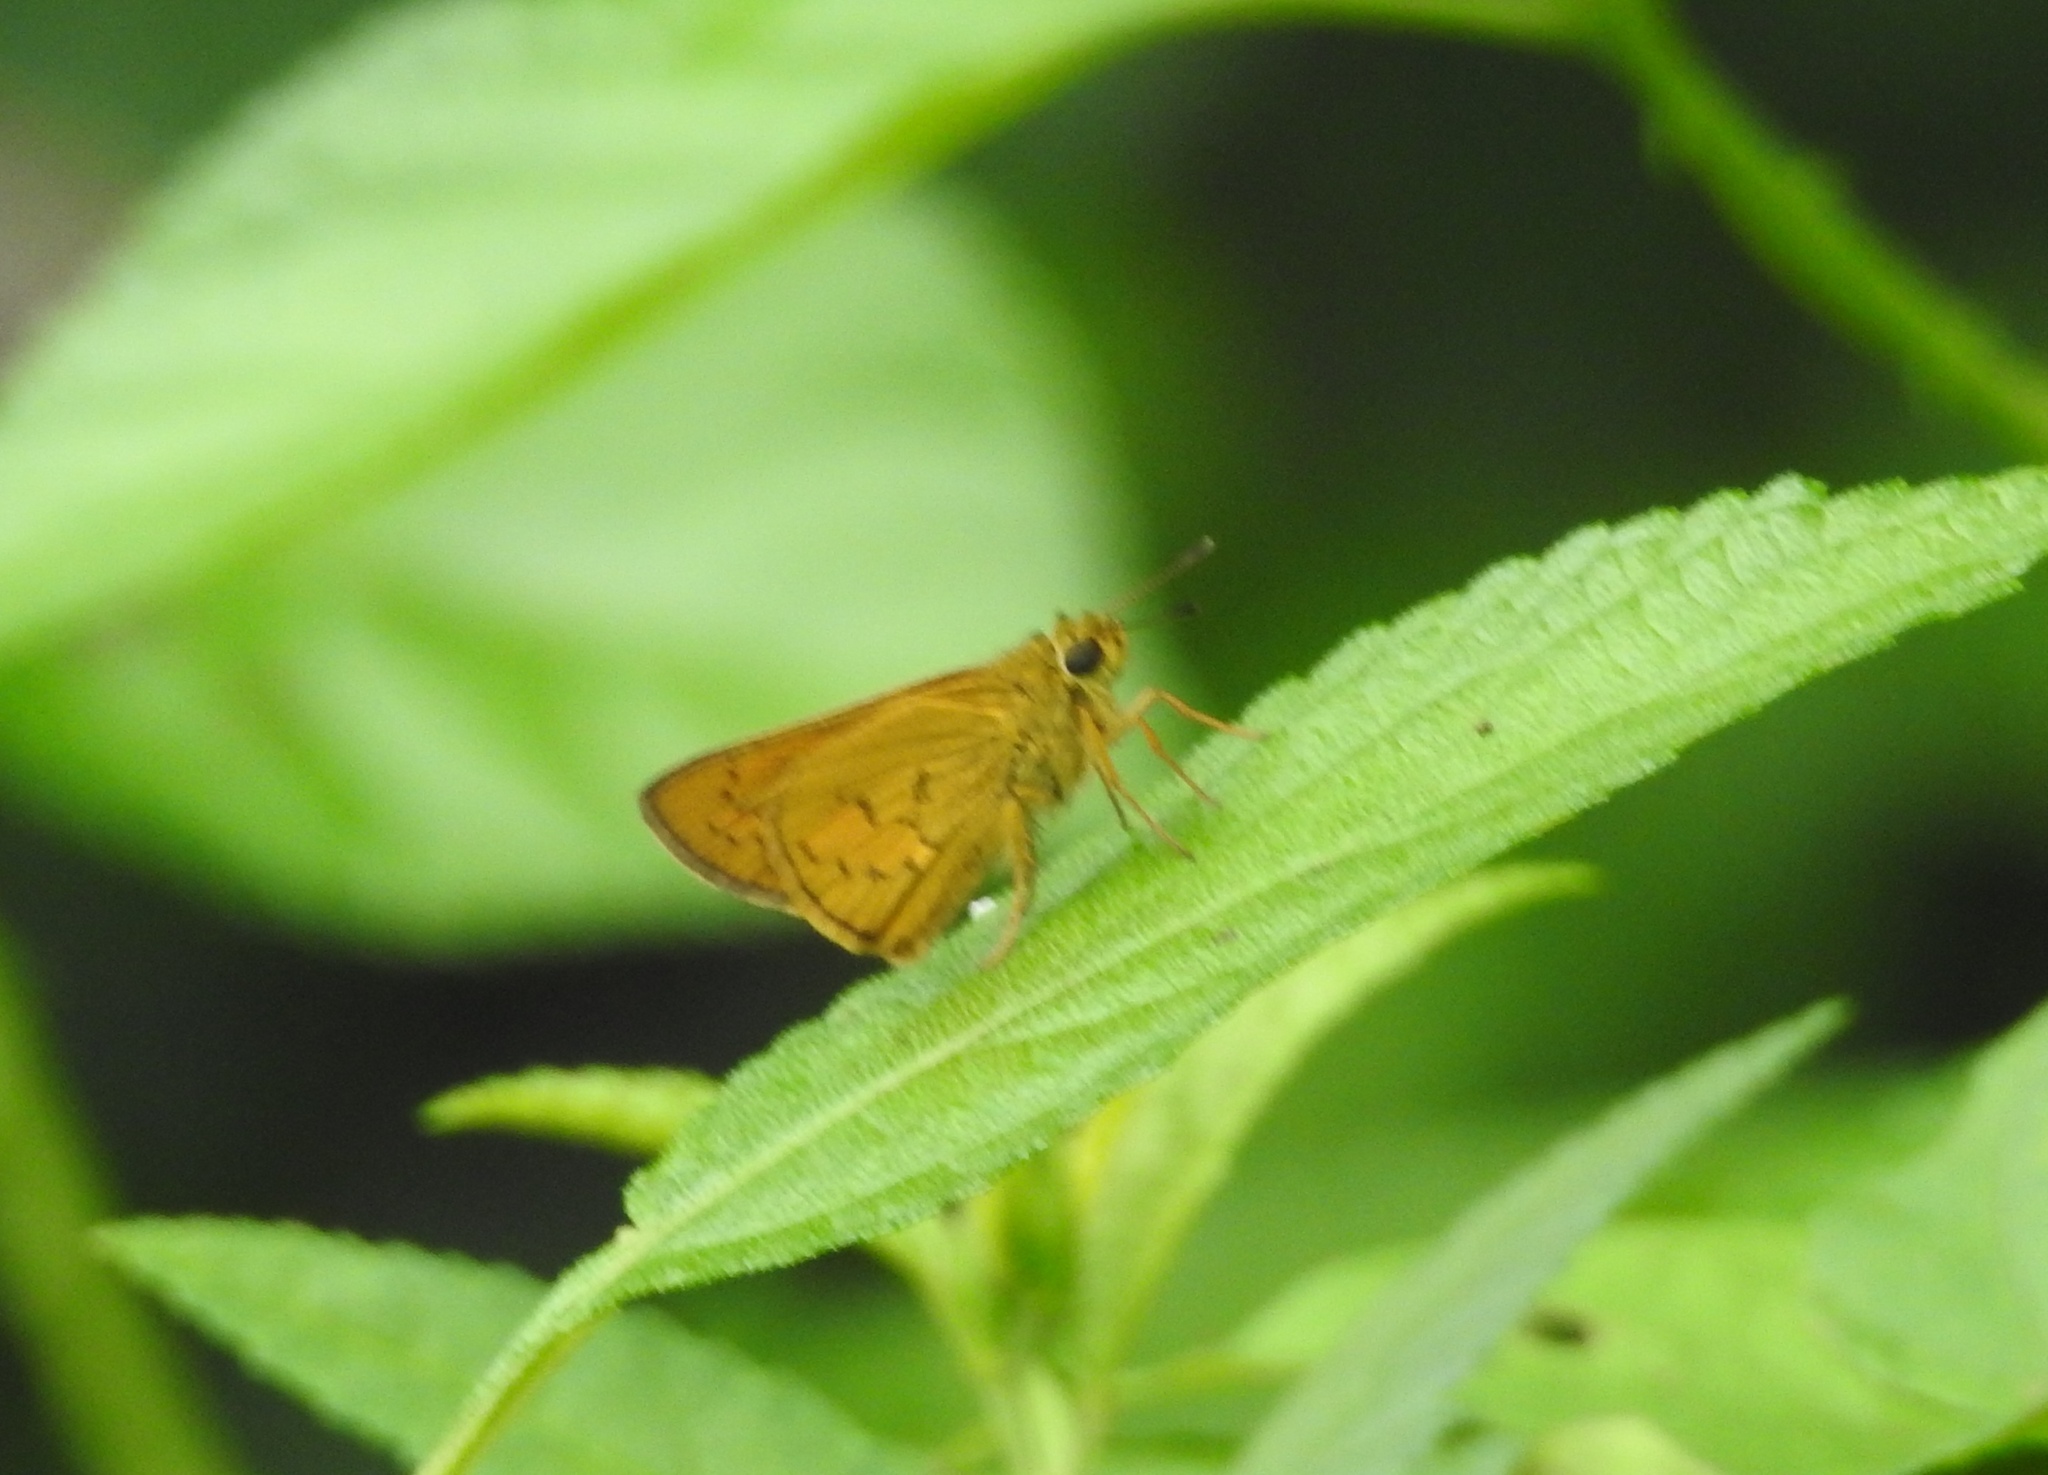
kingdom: Animalia
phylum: Arthropoda
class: Insecta
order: Lepidoptera
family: Hesperiidae
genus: Telicota
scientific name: Telicota bambusae
